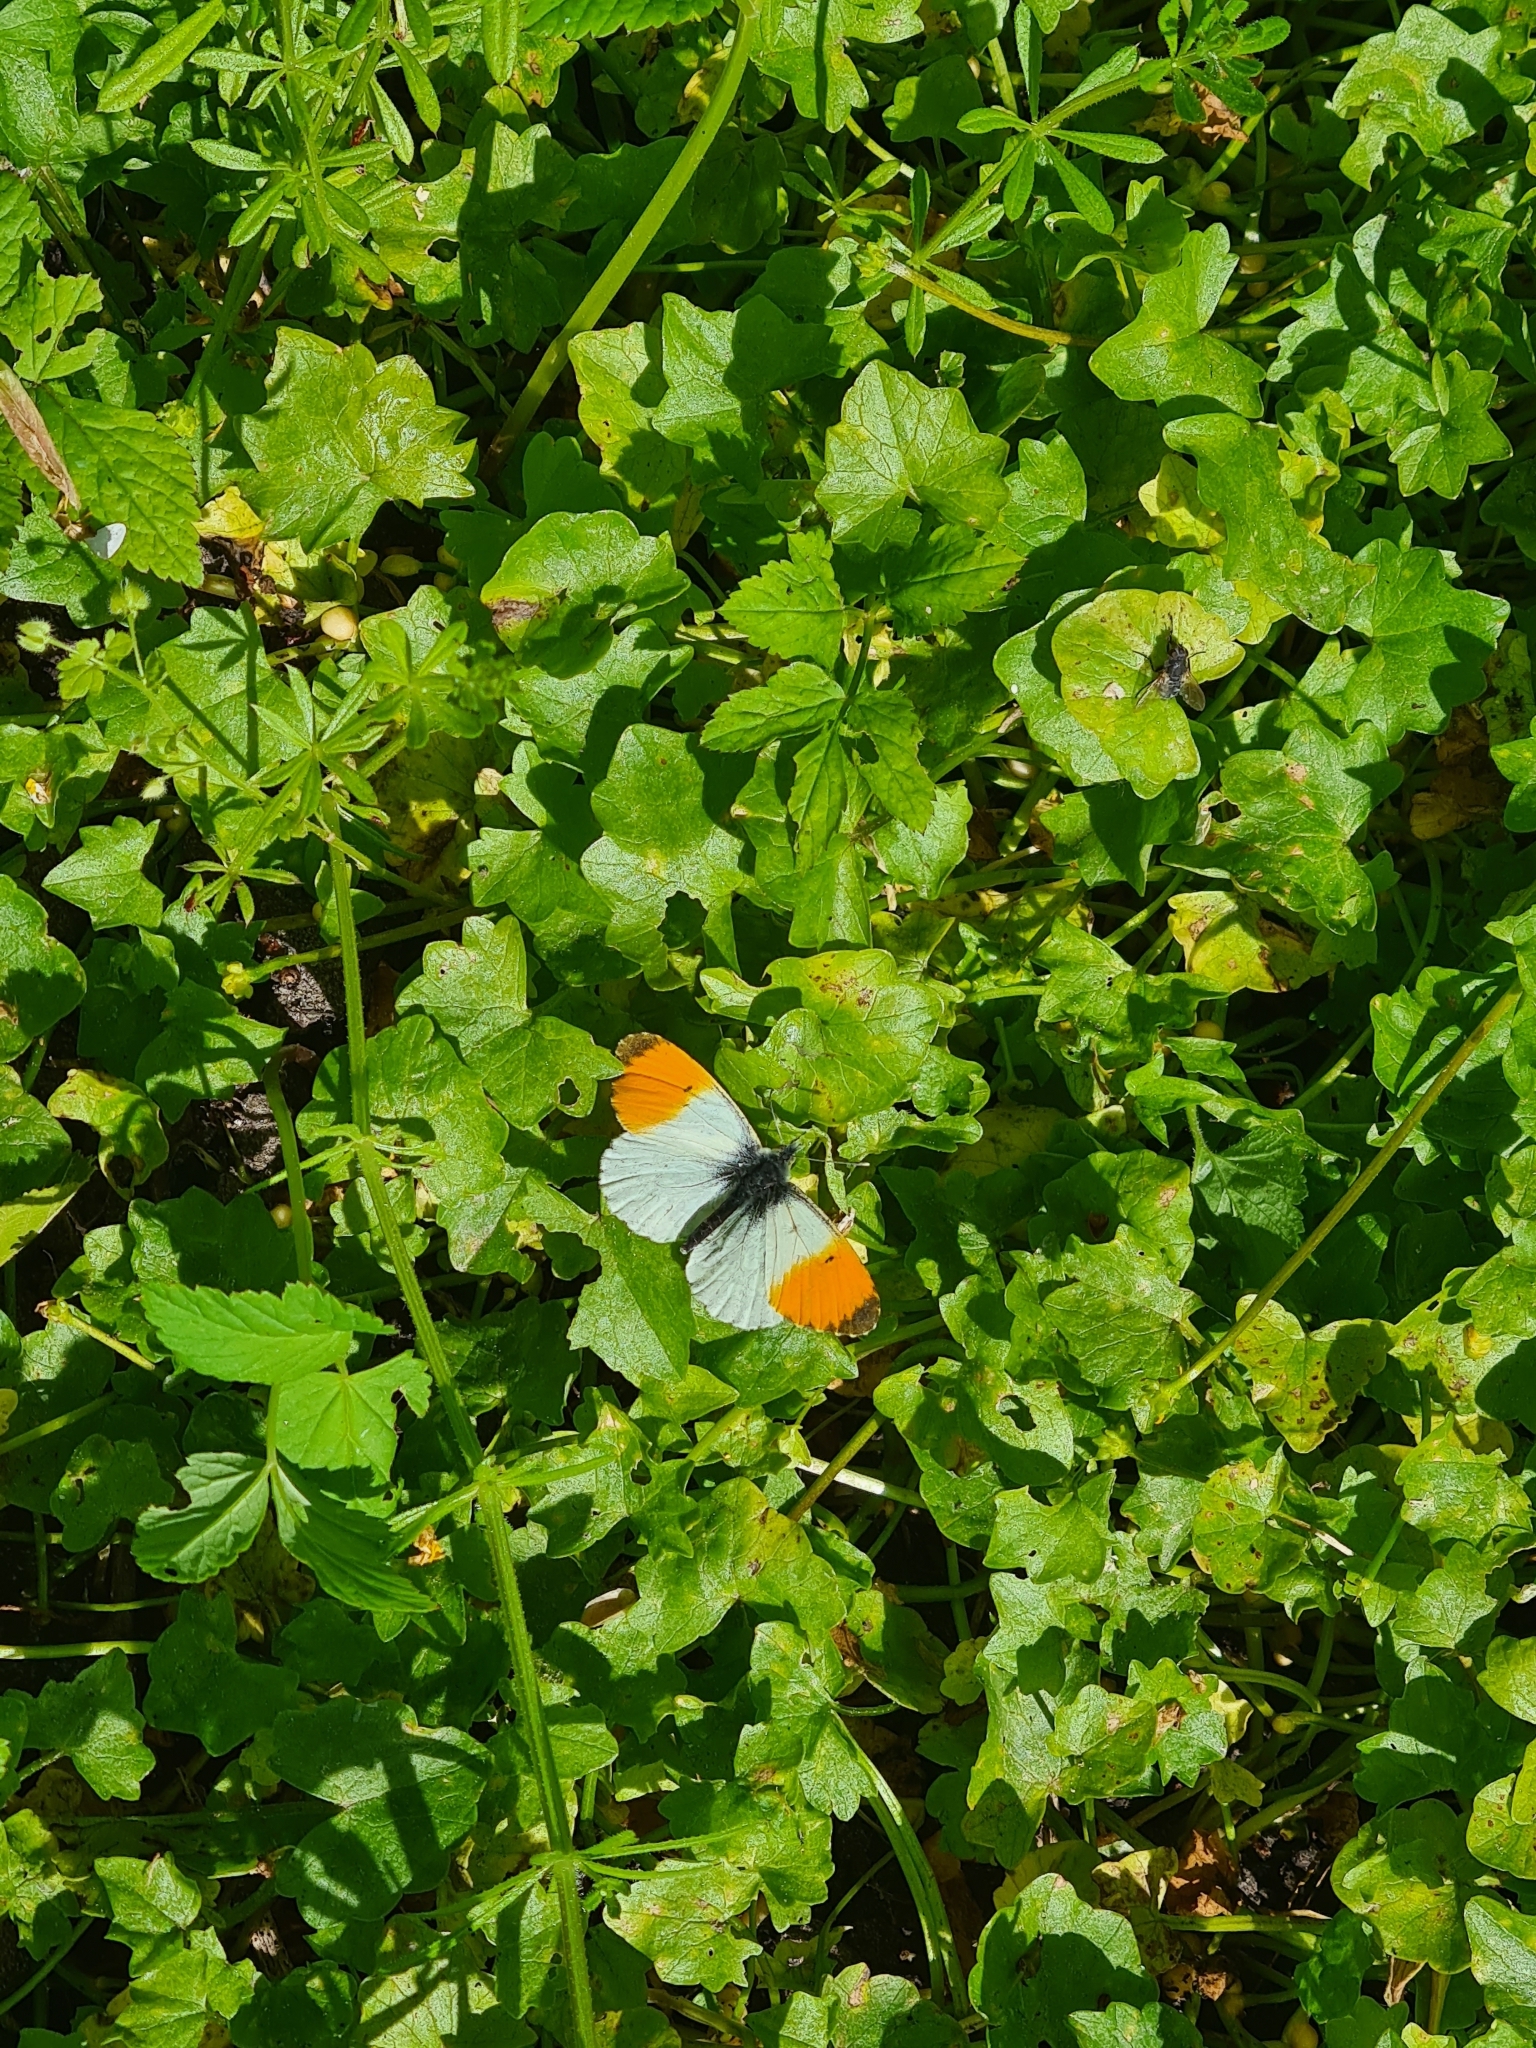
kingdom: Animalia
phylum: Arthropoda
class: Insecta
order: Lepidoptera
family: Pieridae
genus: Anthocharis
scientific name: Anthocharis cardamines
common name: Orange-tip
